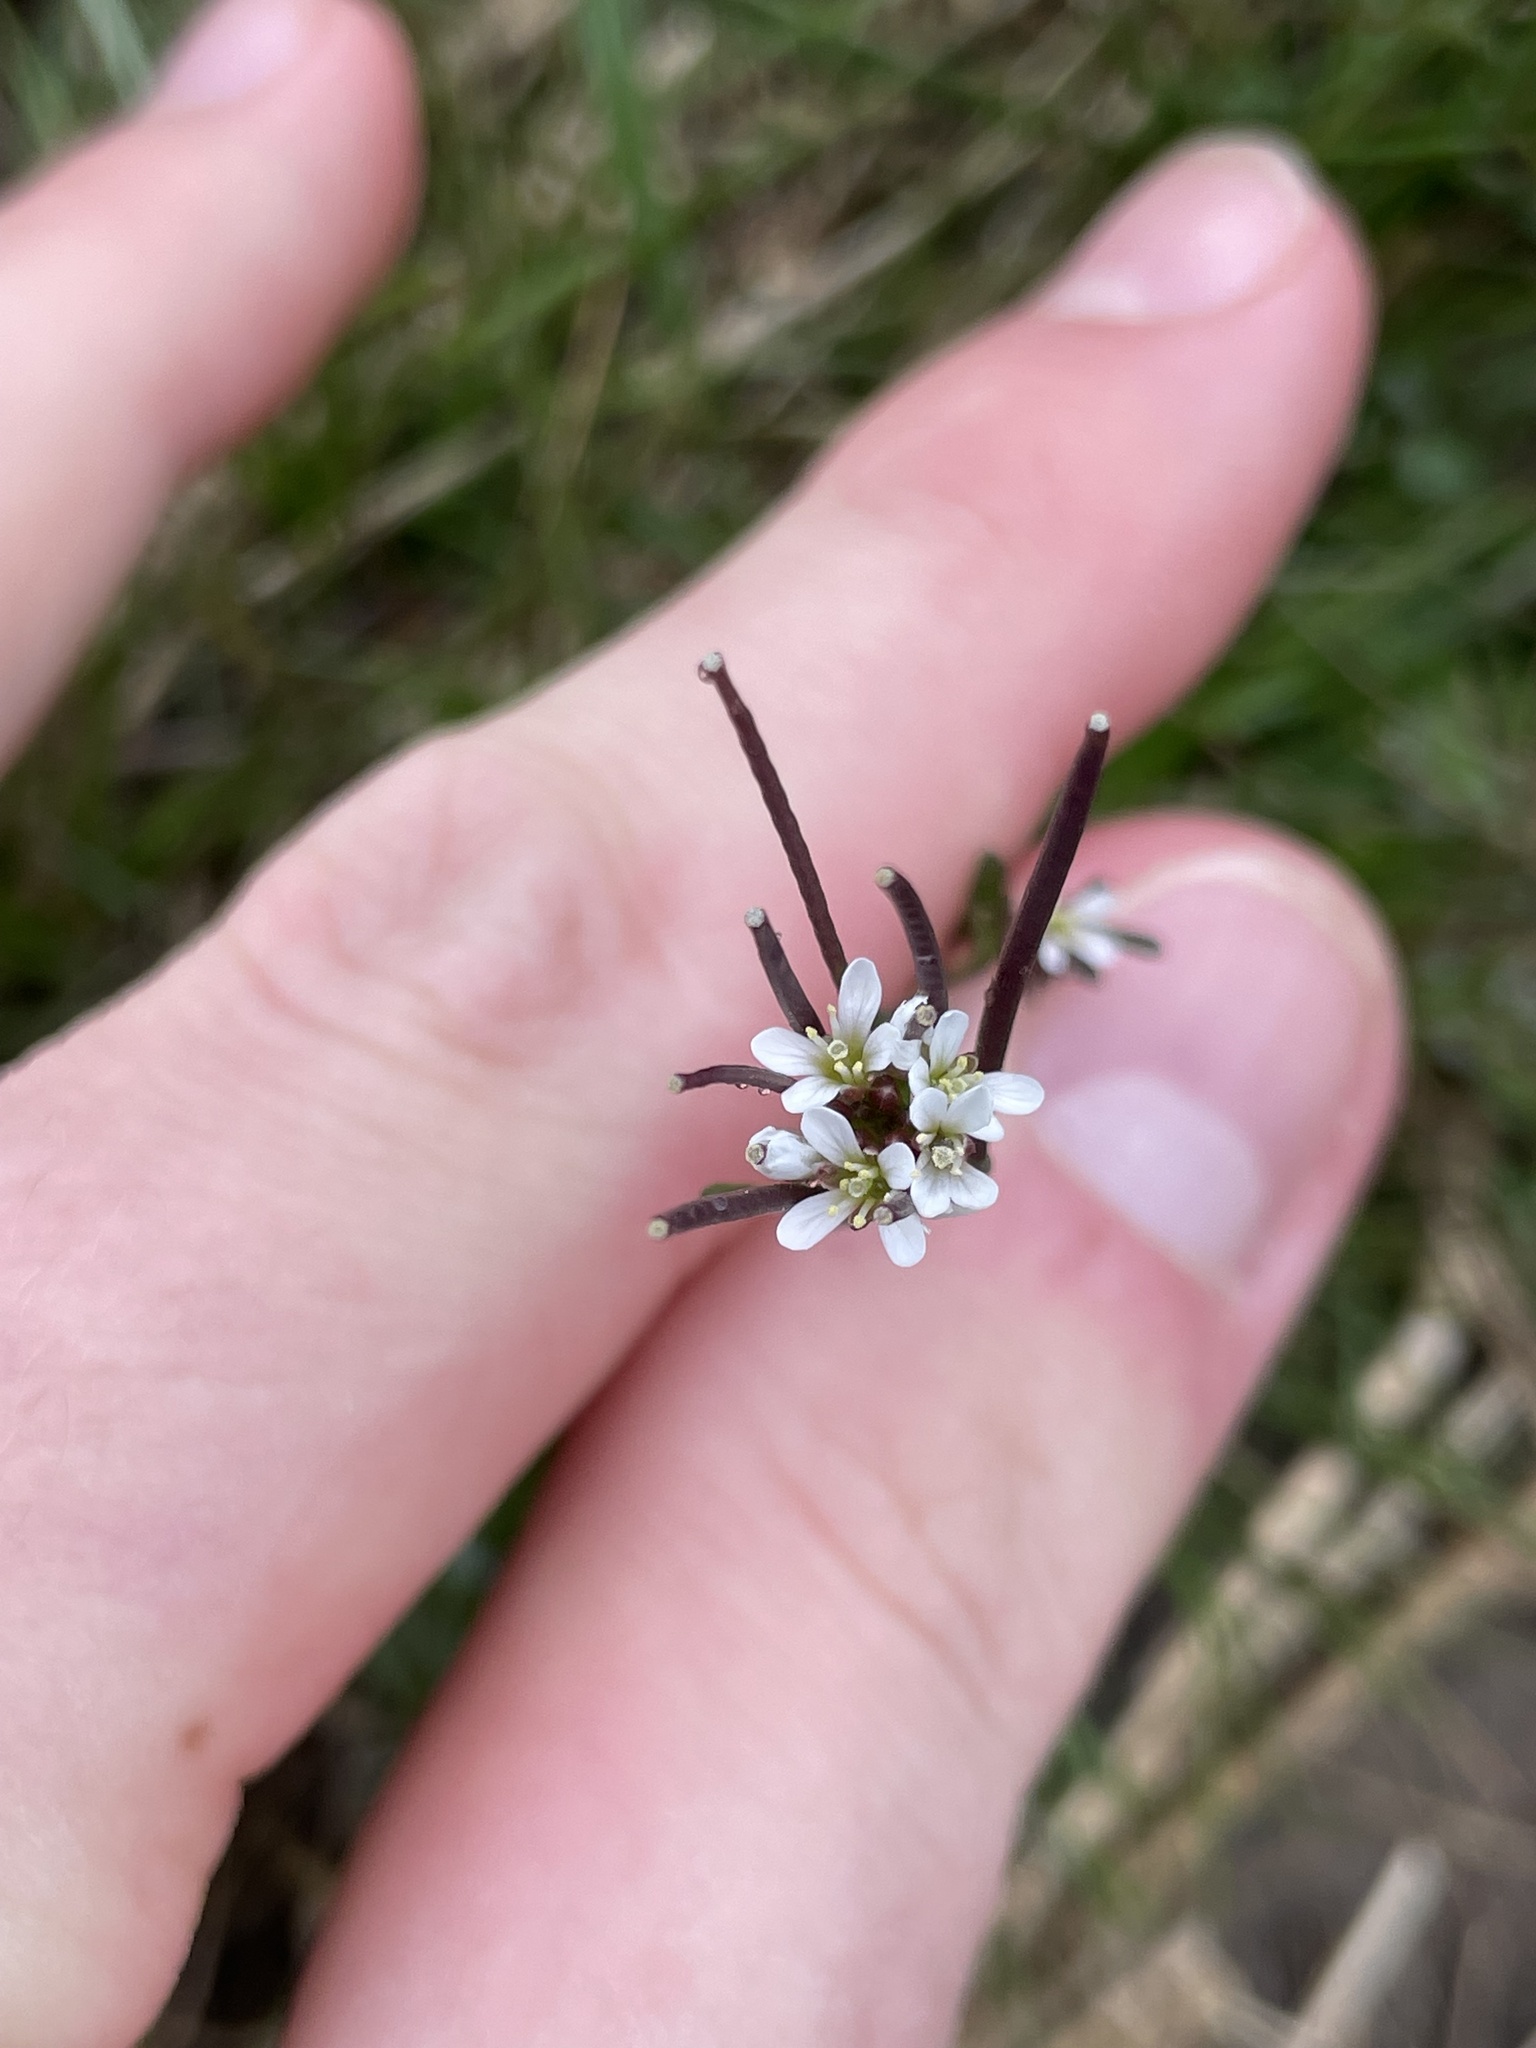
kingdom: Plantae
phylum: Tracheophyta
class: Magnoliopsida
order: Brassicales
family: Brassicaceae
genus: Cardamine
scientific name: Cardamine hirsuta
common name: Hairy bittercress
